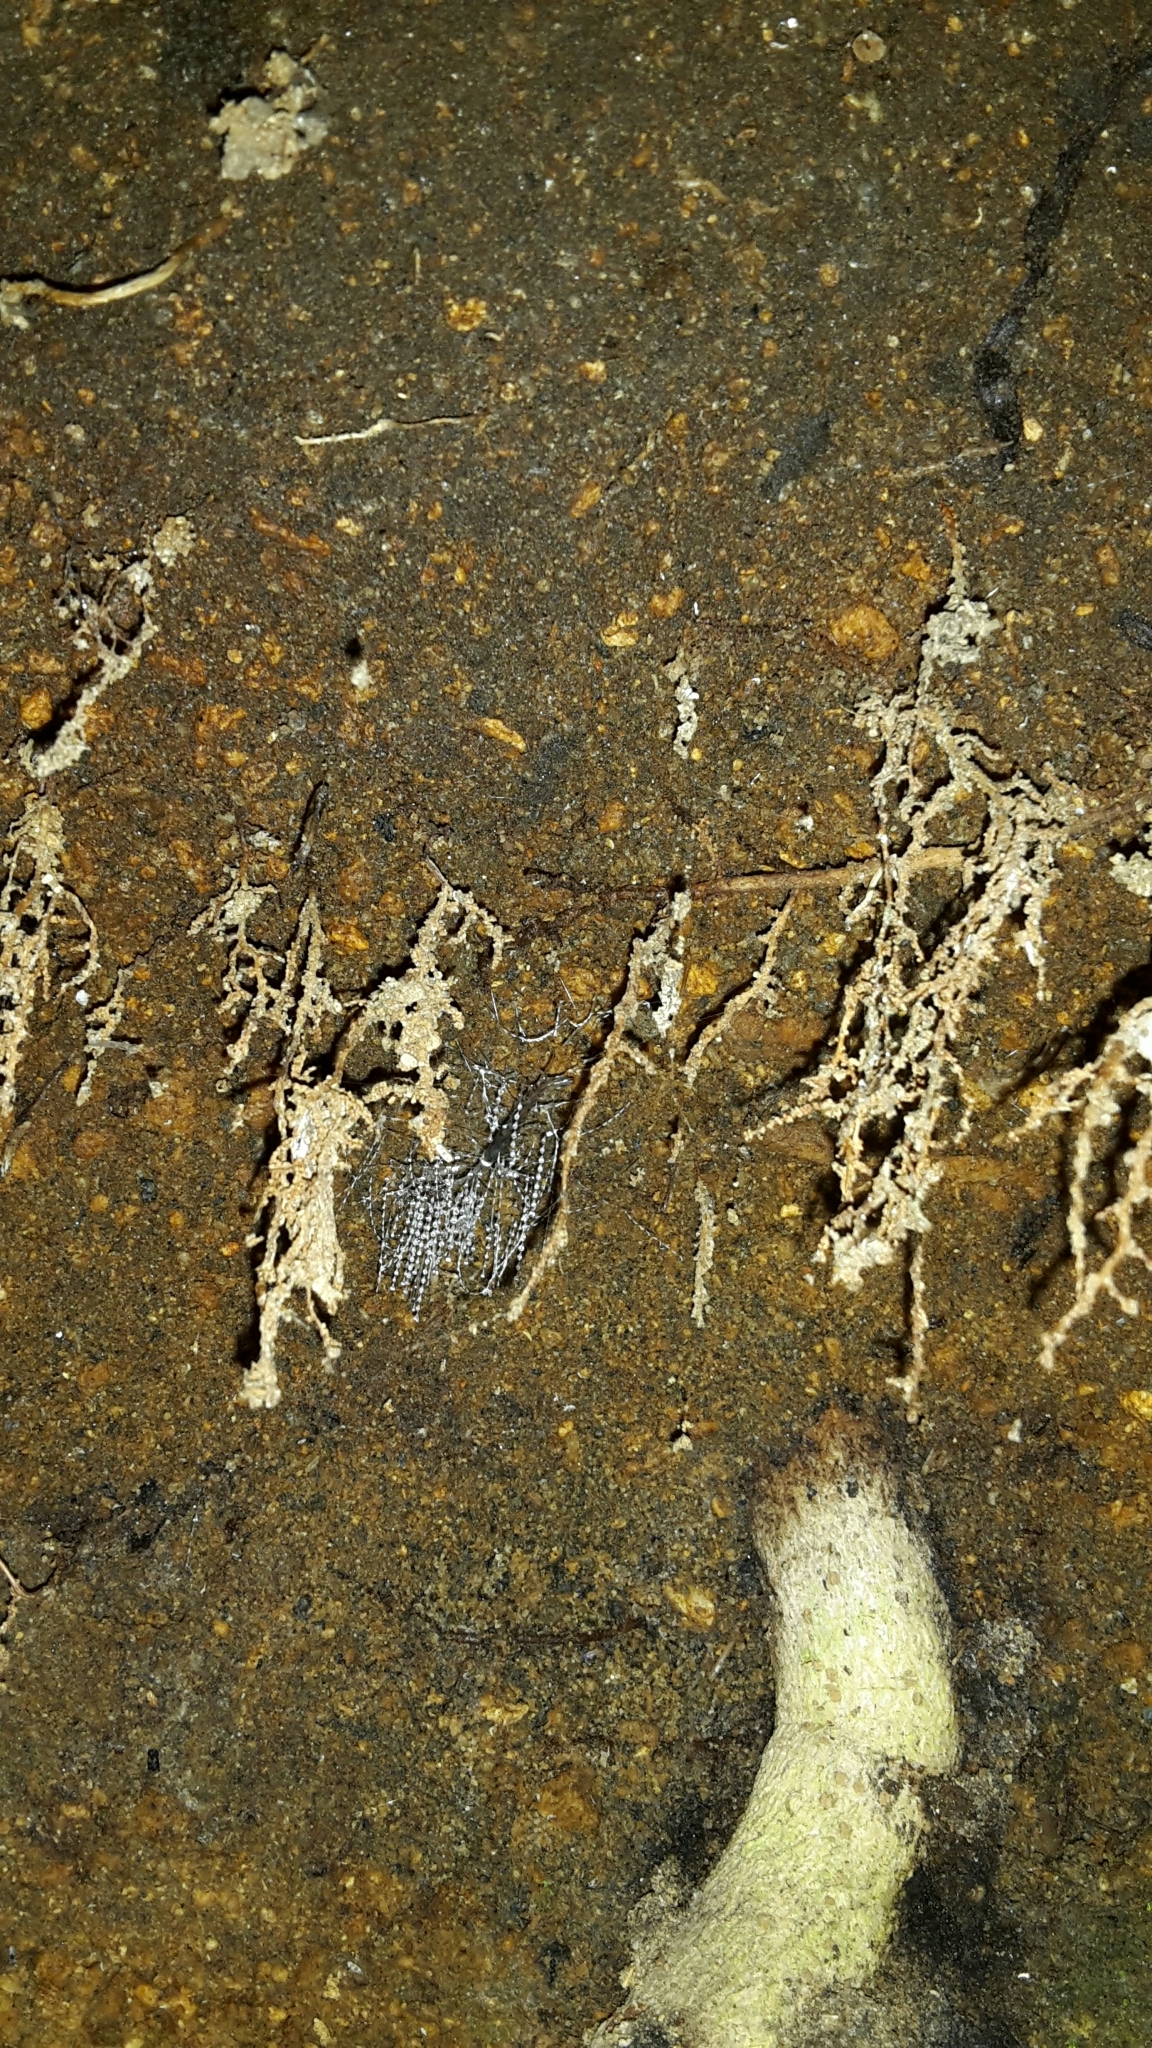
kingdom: Animalia
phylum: Arthropoda
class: Insecta
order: Diptera
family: Keroplatidae
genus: Arachnocampa
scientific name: Arachnocampa luminosa
